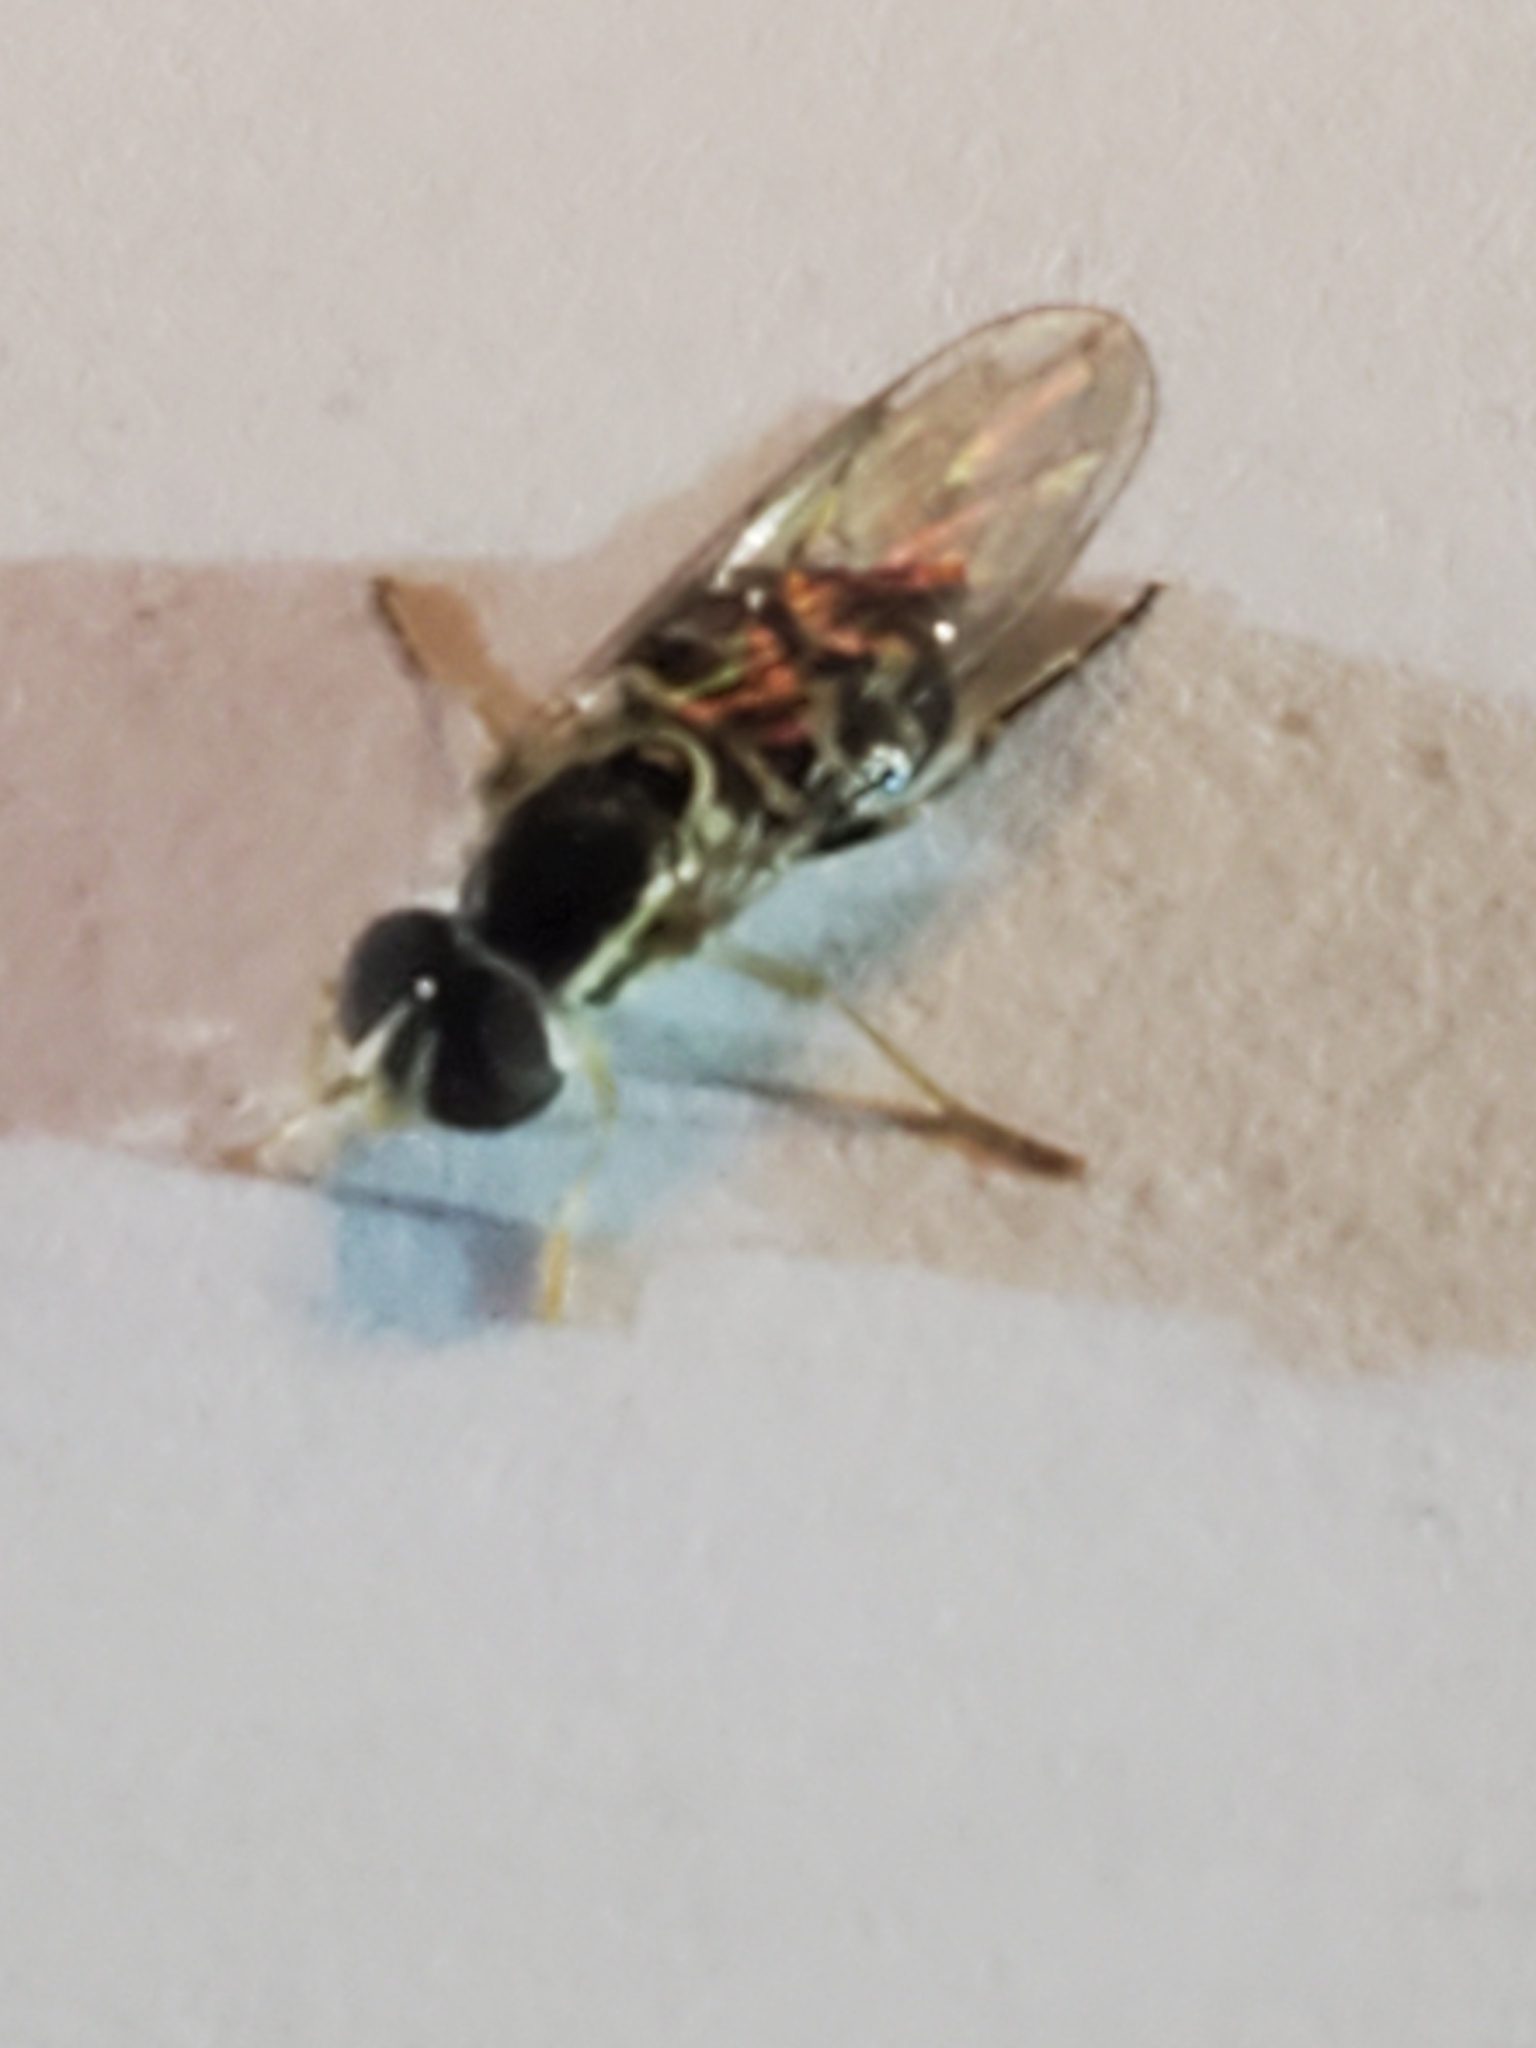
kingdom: Animalia
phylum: Arthropoda
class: Insecta
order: Diptera
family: Syrphidae
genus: Toxomerus
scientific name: Toxomerus geminatus
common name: Eastern calligrapher
